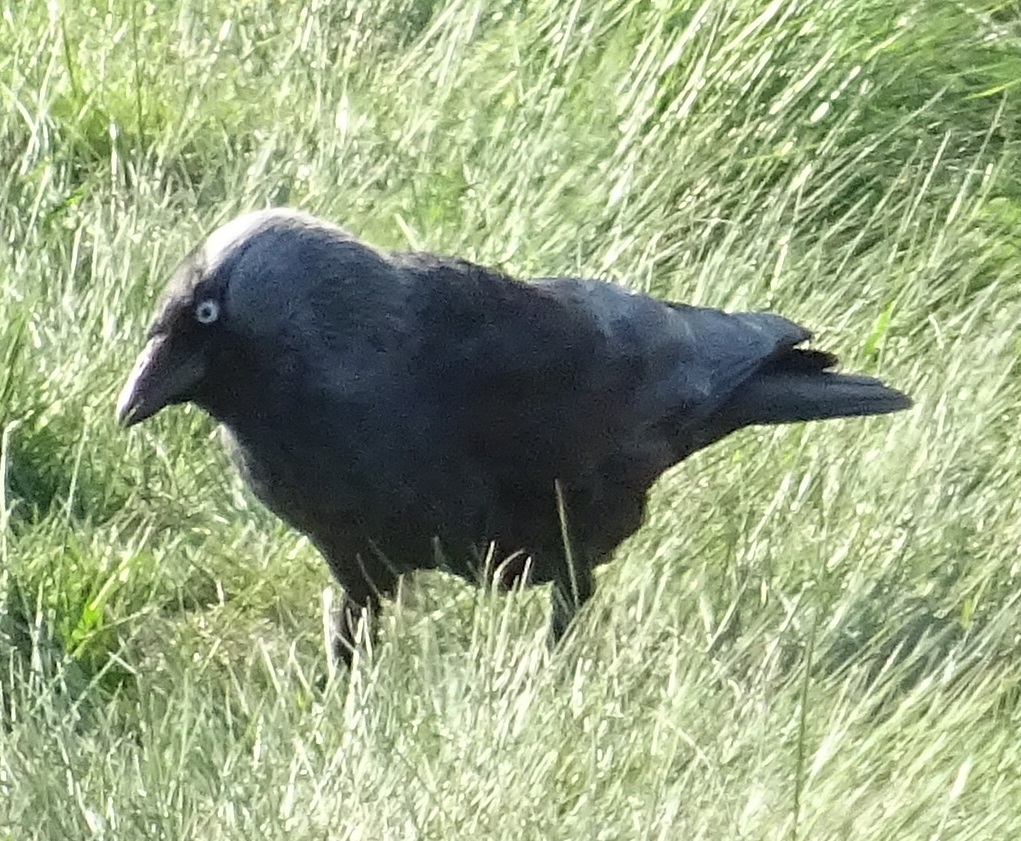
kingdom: Animalia
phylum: Chordata
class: Aves
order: Passeriformes
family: Corvidae
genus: Coloeus
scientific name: Coloeus monedula
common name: Western jackdaw
